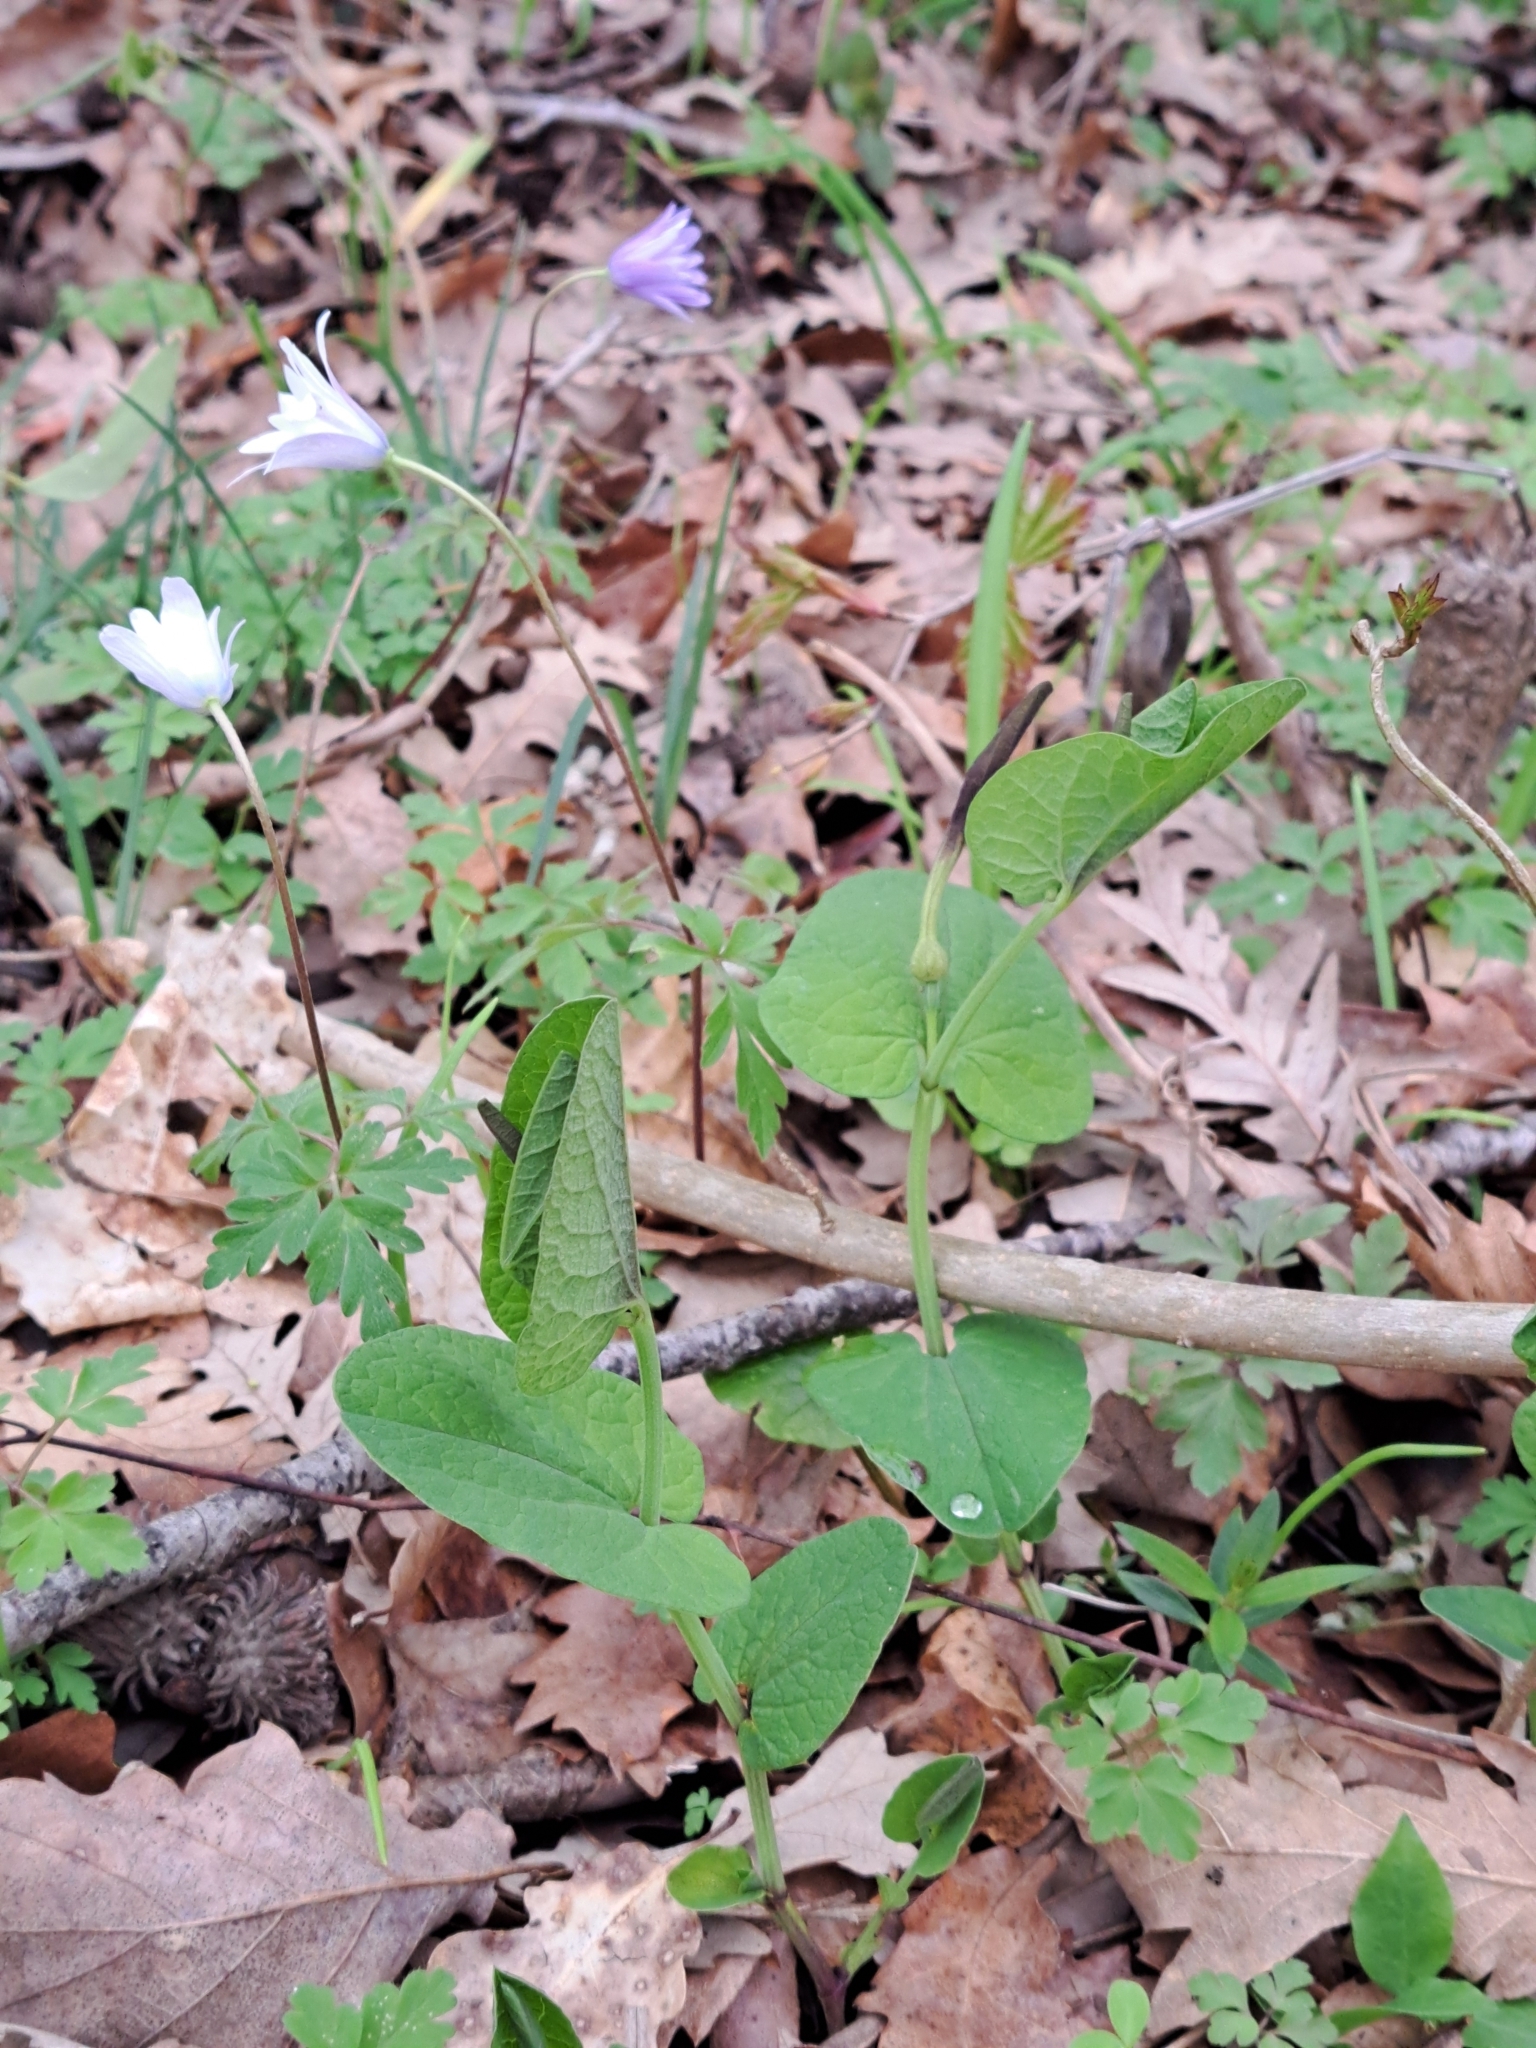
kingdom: Plantae
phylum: Tracheophyta
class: Magnoliopsida
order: Piperales
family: Aristolochiaceae
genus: Aristolochia
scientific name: Aristolochia rotunda
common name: Smearwort
